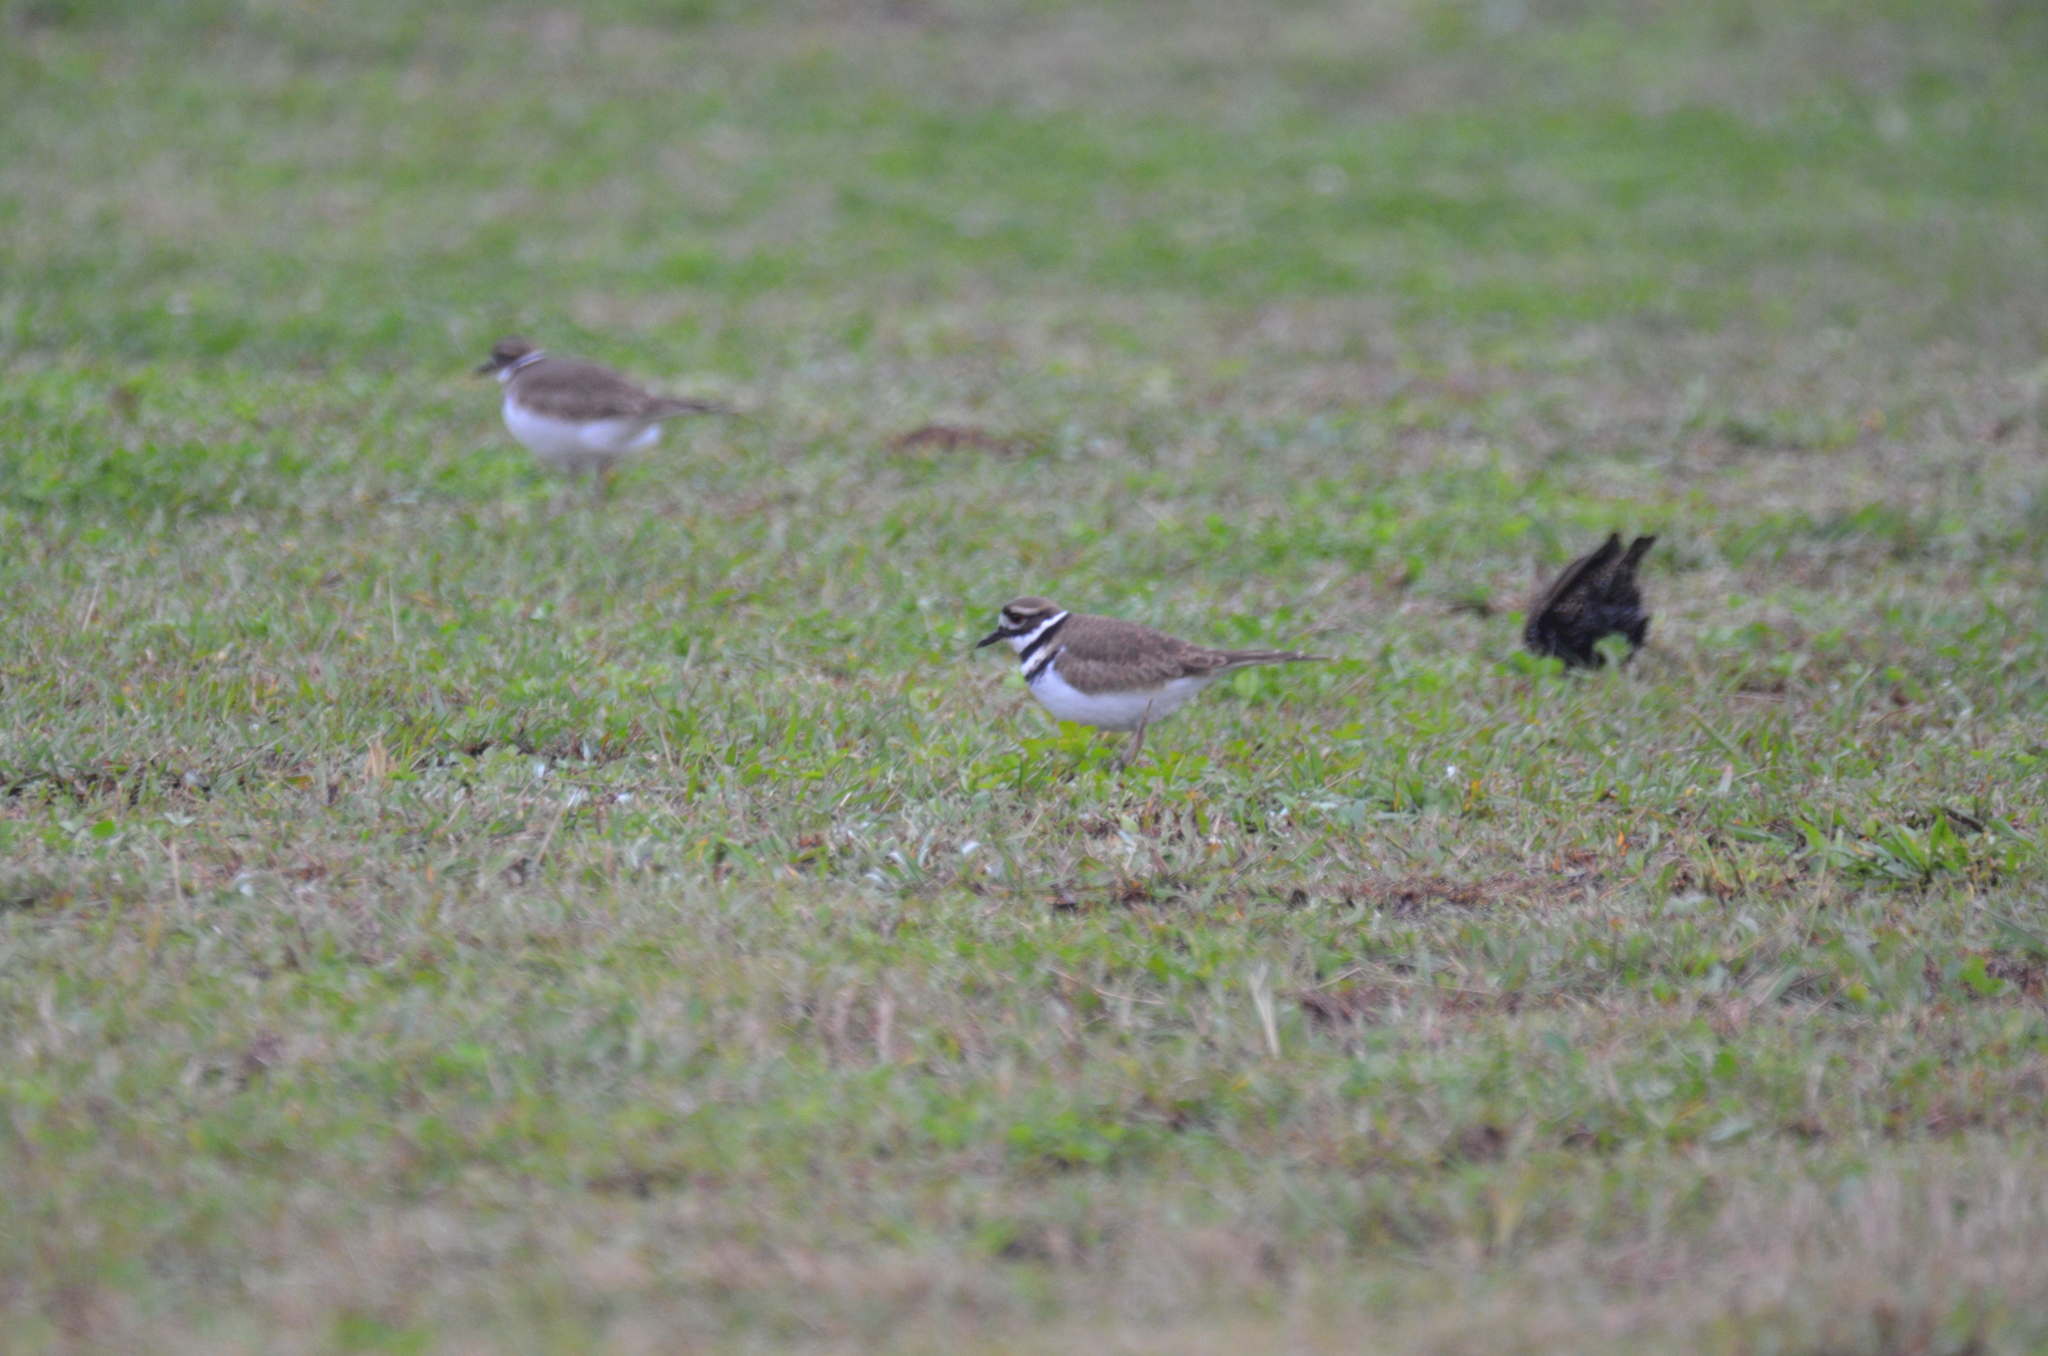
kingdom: Animalia
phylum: Chordata
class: Aves
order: Charadriiformes
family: Charadriidae
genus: Charadrius
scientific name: Charadrius vociferus
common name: Killdeer
